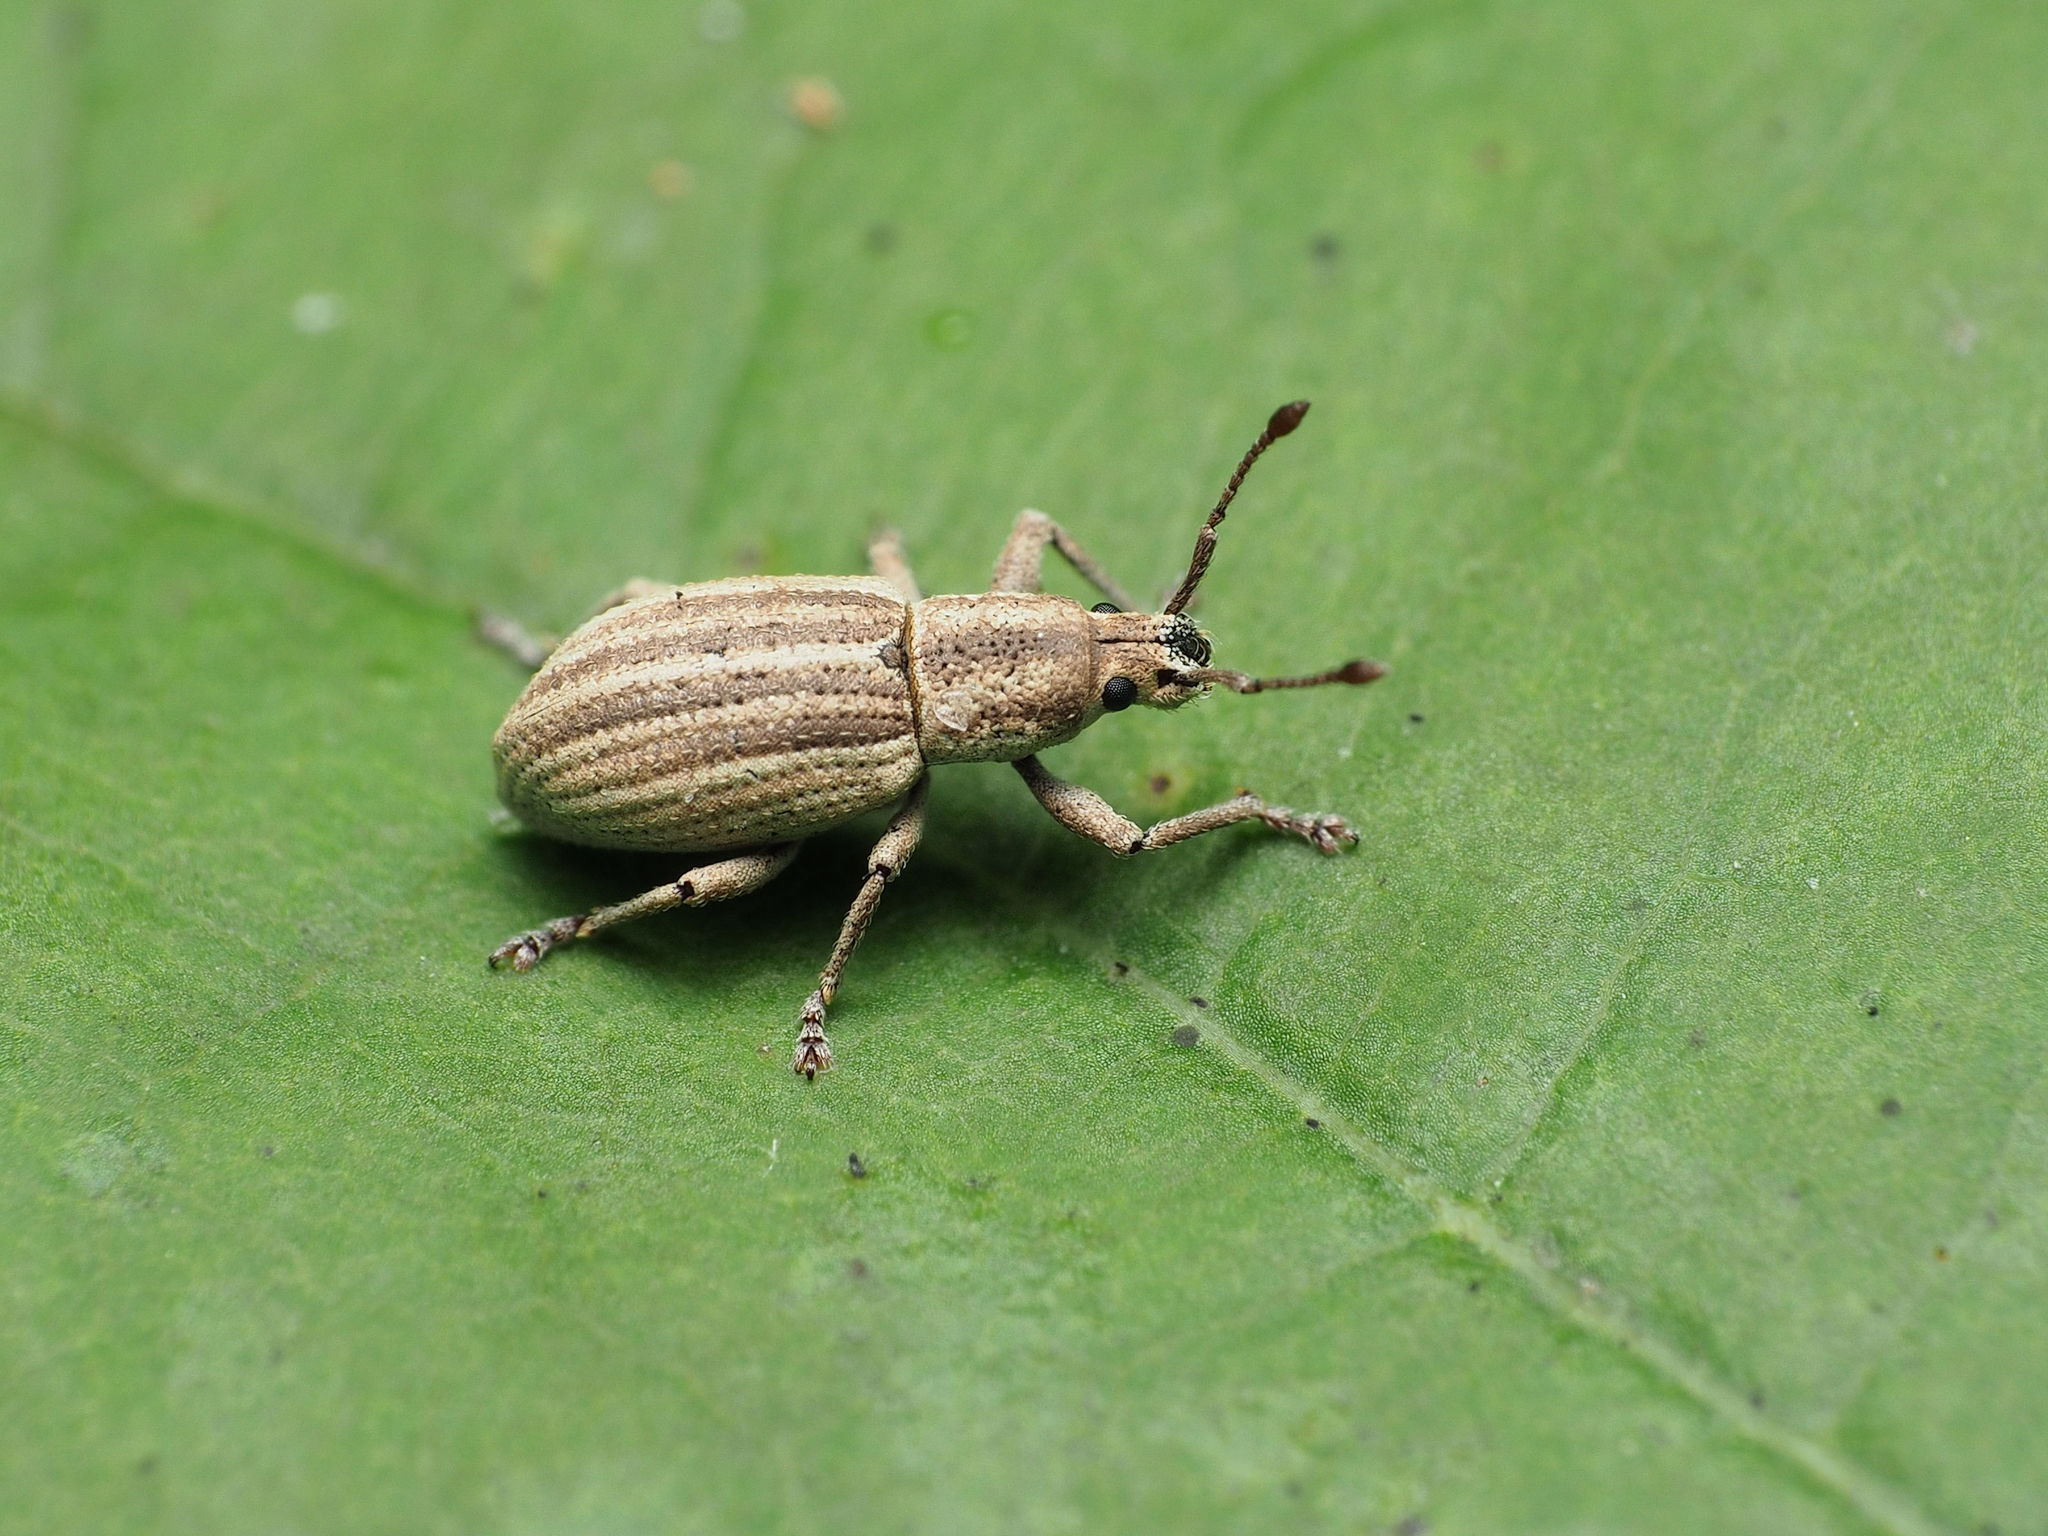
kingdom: Animalia
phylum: Arthropoda
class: Insecta
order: Coleoptera
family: Curculionidae
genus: Aphrastus
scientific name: Aphrastus taeniatus
